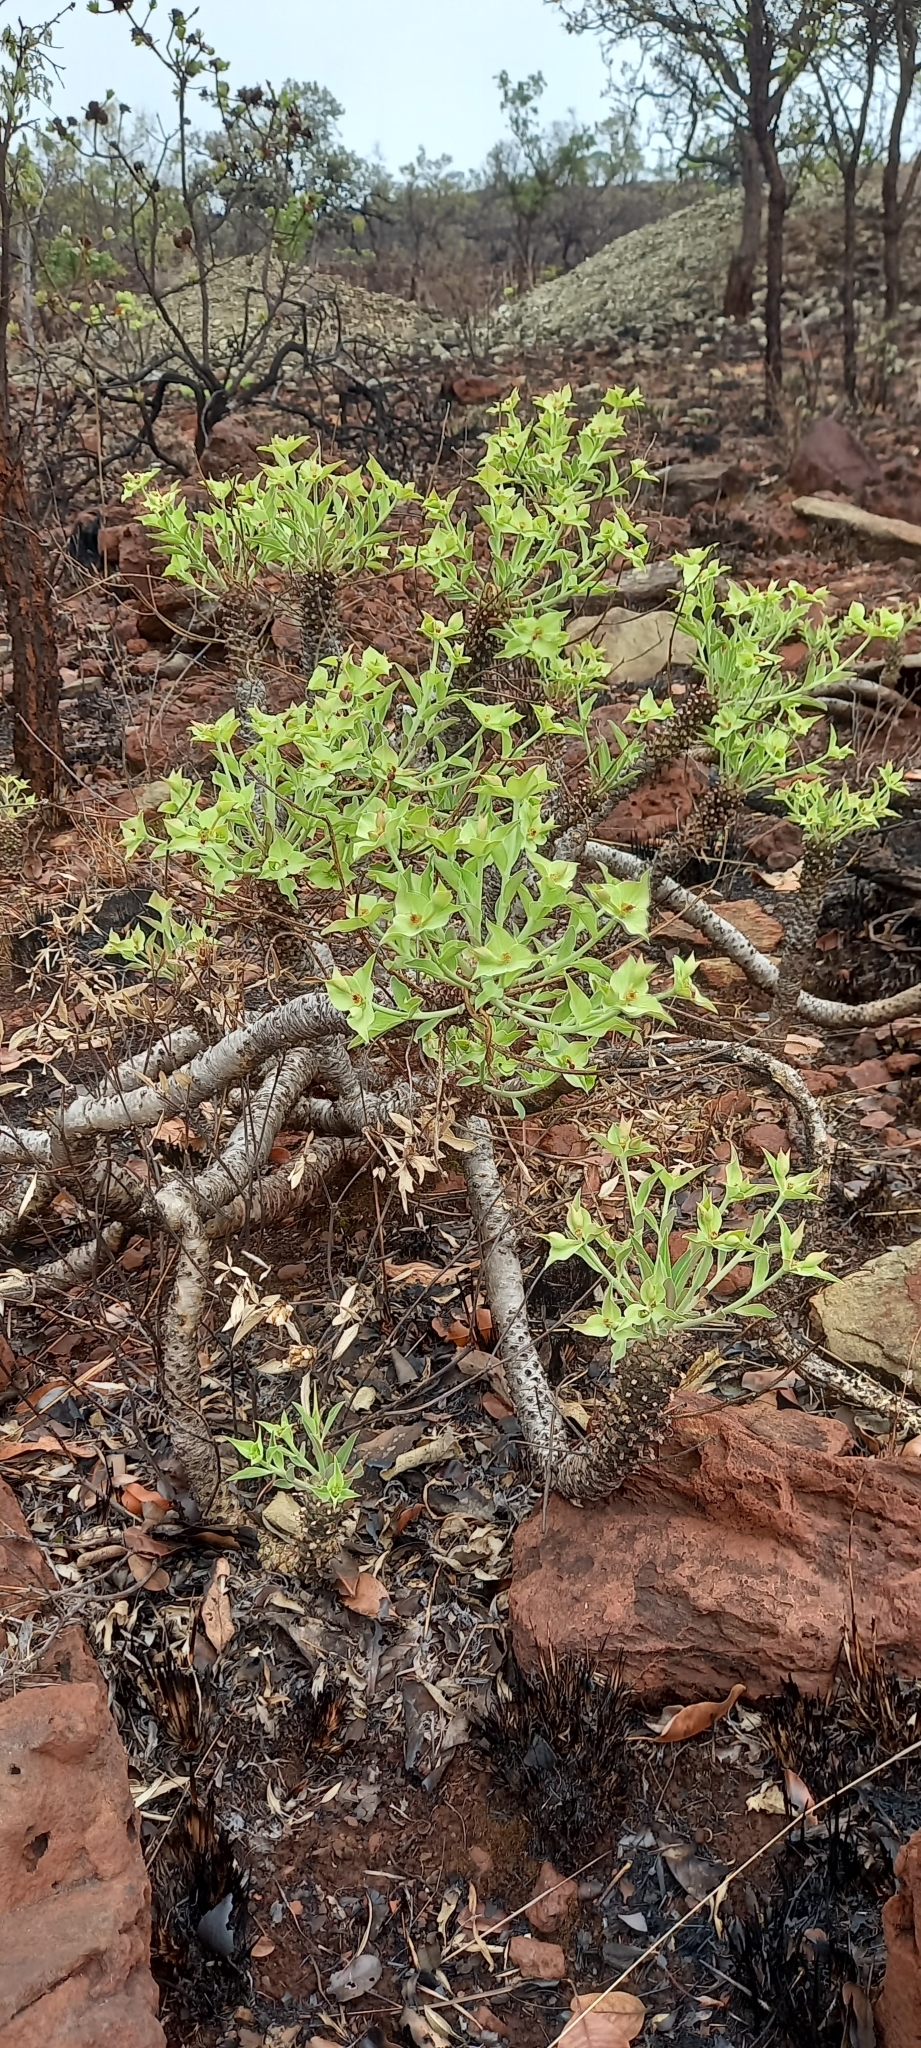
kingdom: Plantae
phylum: Tracheophyta
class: Magnoliopsida
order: Malpighiales
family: Euphorbiaceae
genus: Euphorbia
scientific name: Euphorbia wildii
